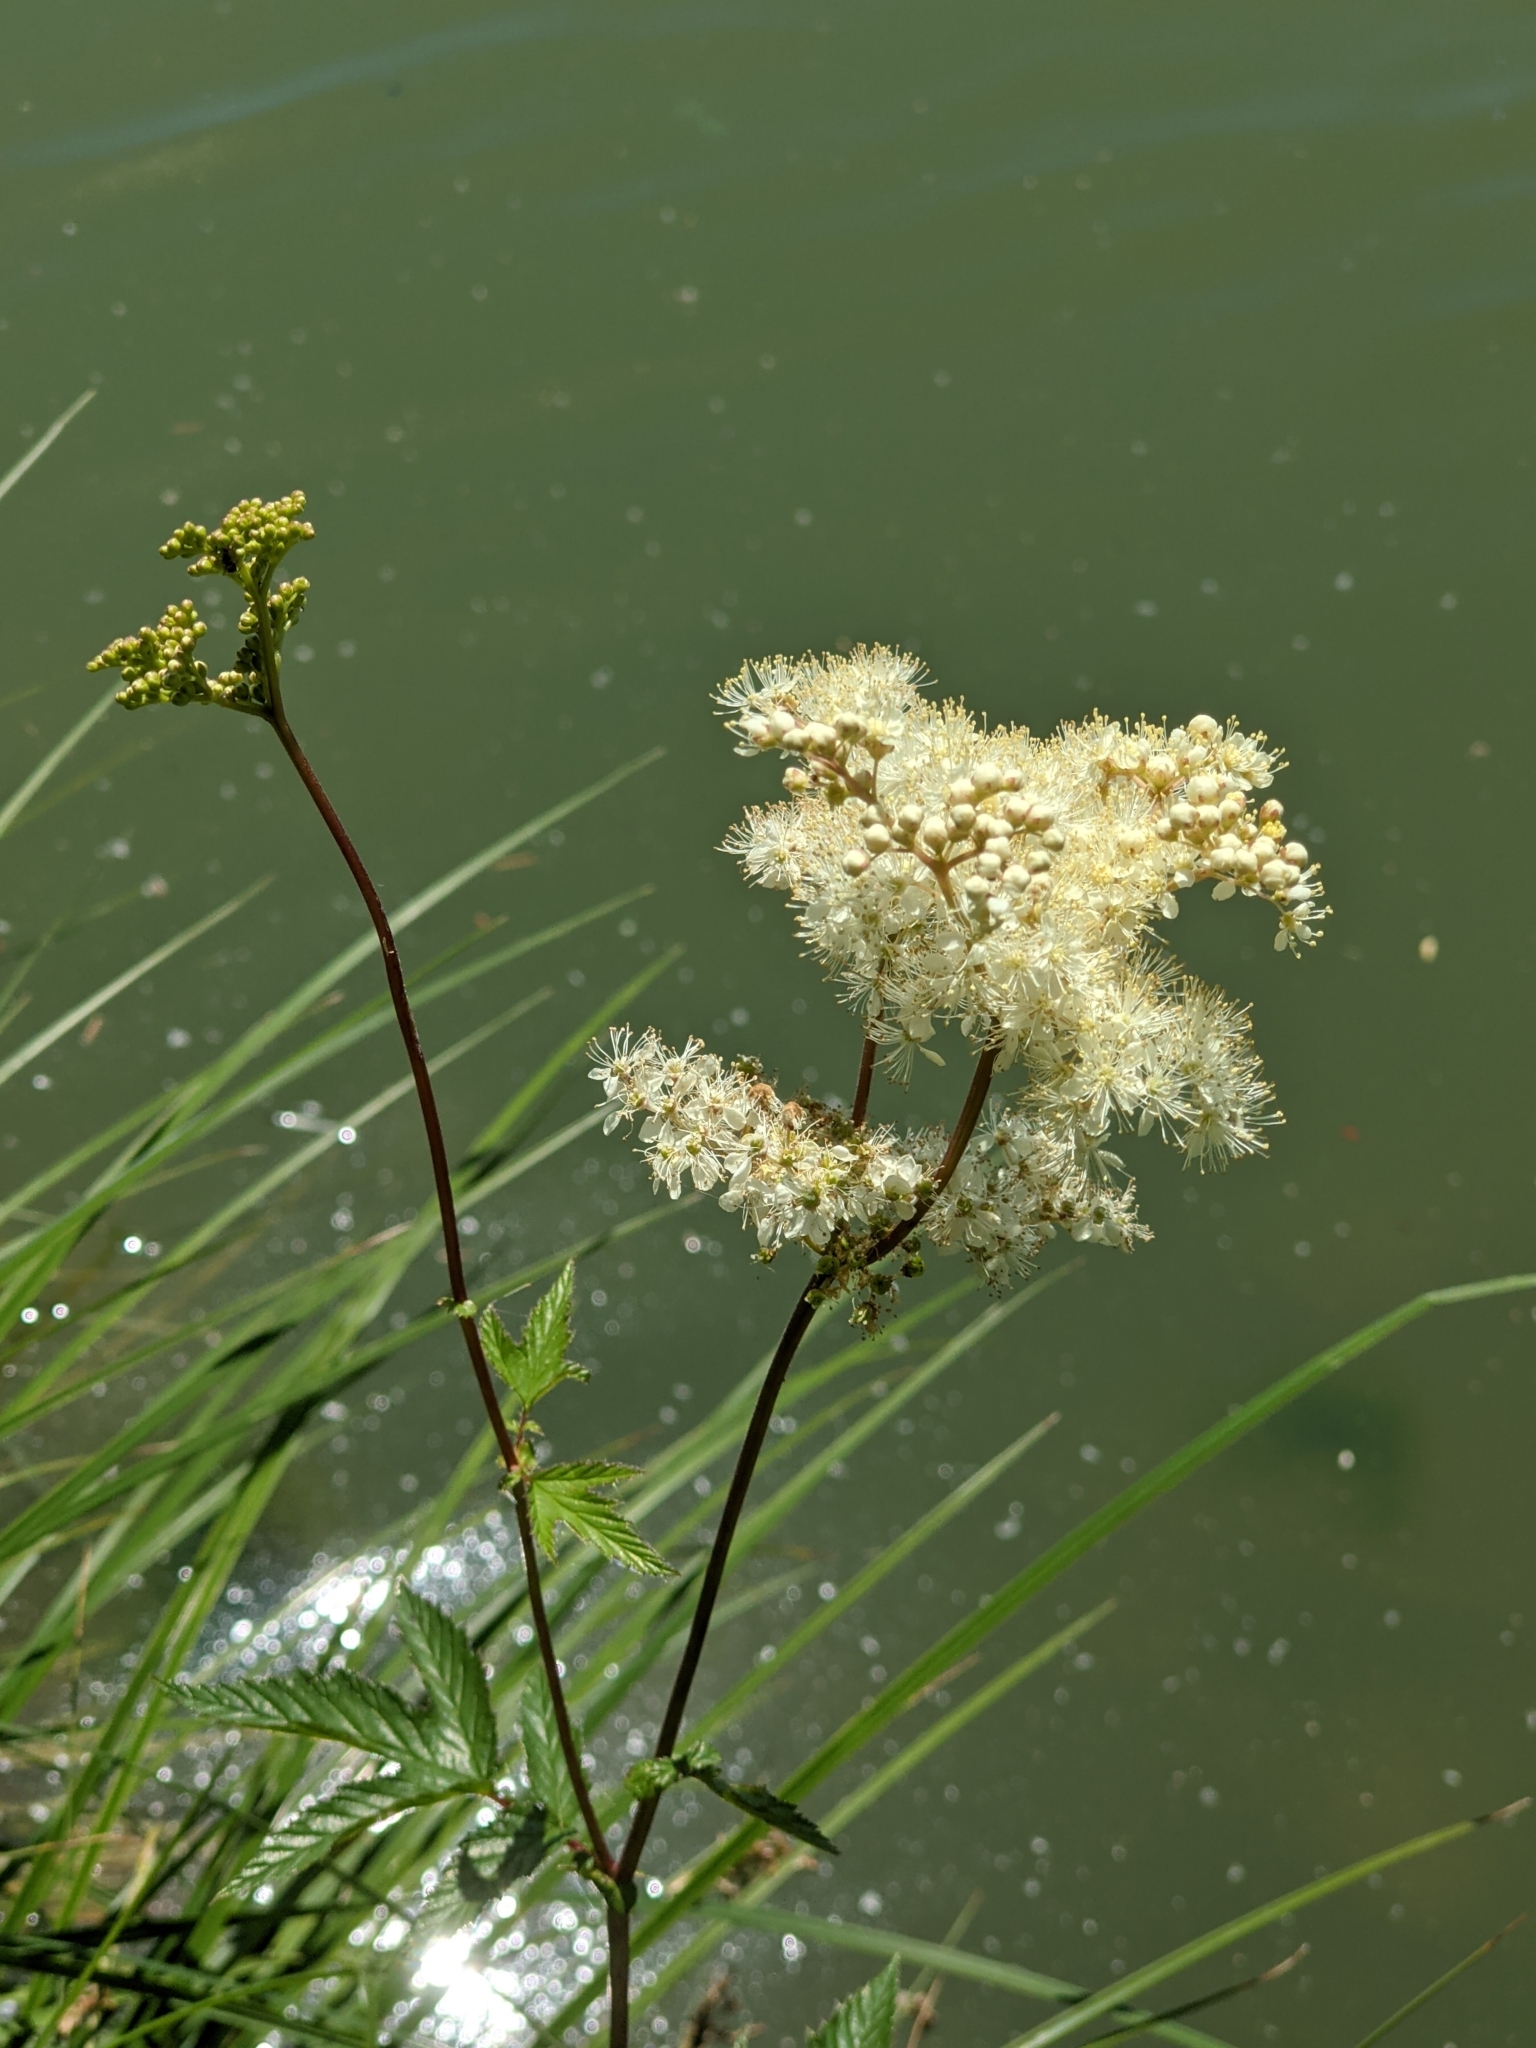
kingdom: Plantae
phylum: Tracheophyta
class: Magnoliopsida
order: Rosales
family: Rosaceae
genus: Filipendula
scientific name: Filipendula ulmaria
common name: Meadowsweet
